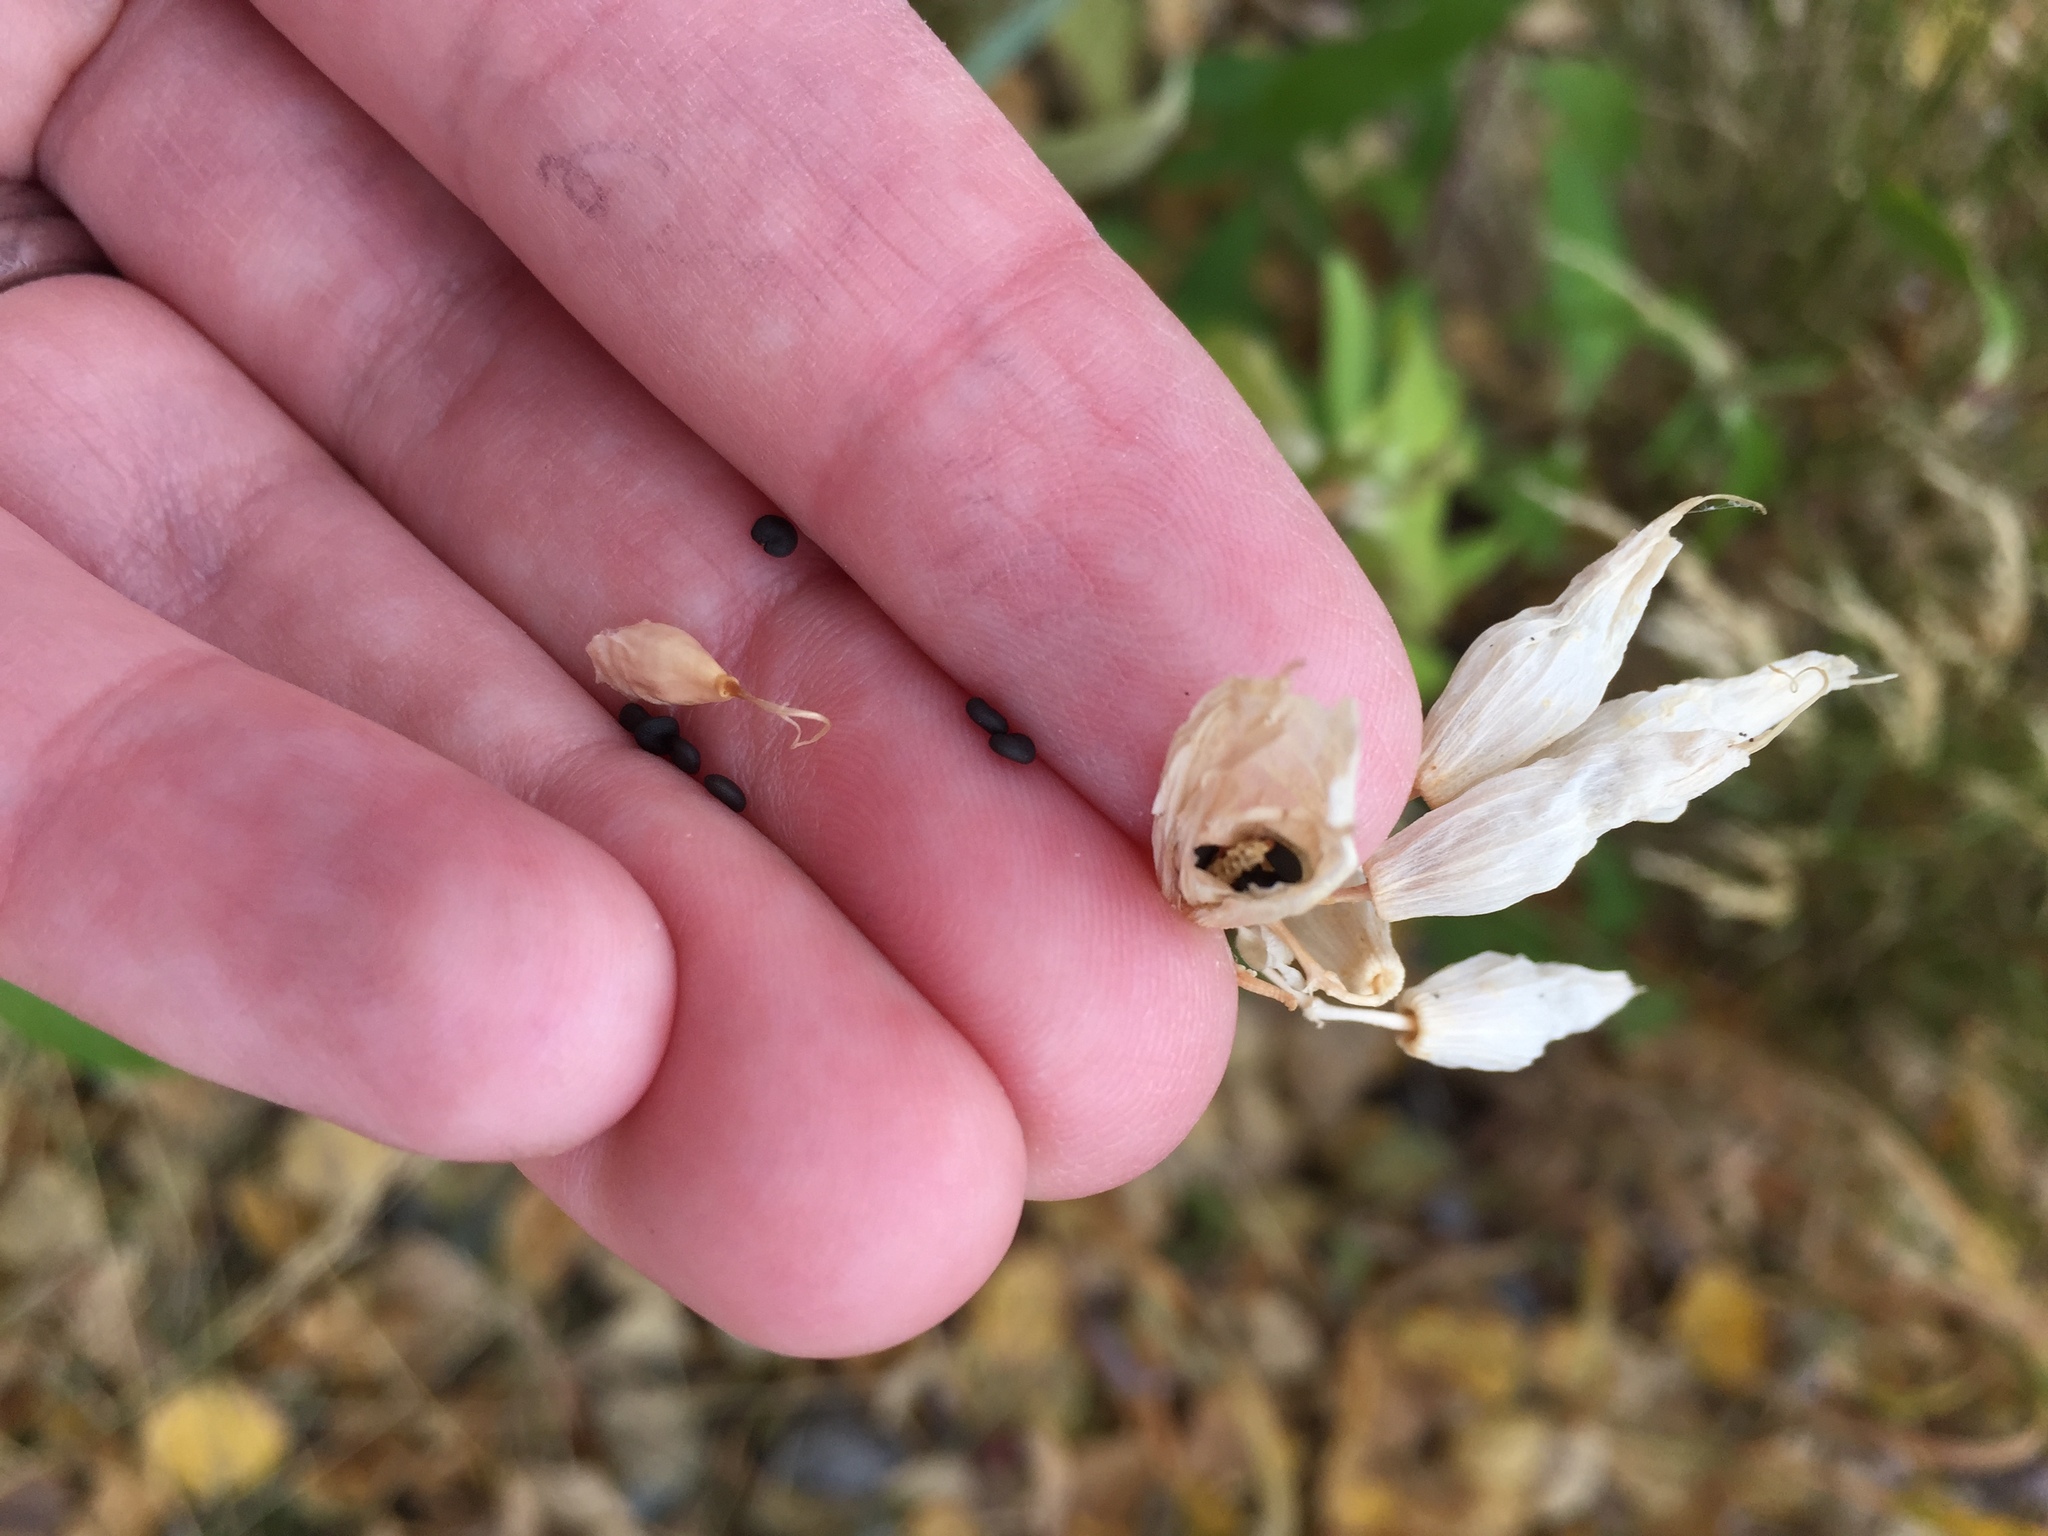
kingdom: Plantae
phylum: Tracheophyta
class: Magnoliopsida
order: Caryophyllales
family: Caryophyllaceae
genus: Saponaria
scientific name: Saponaria officinalis
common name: Soapwort
